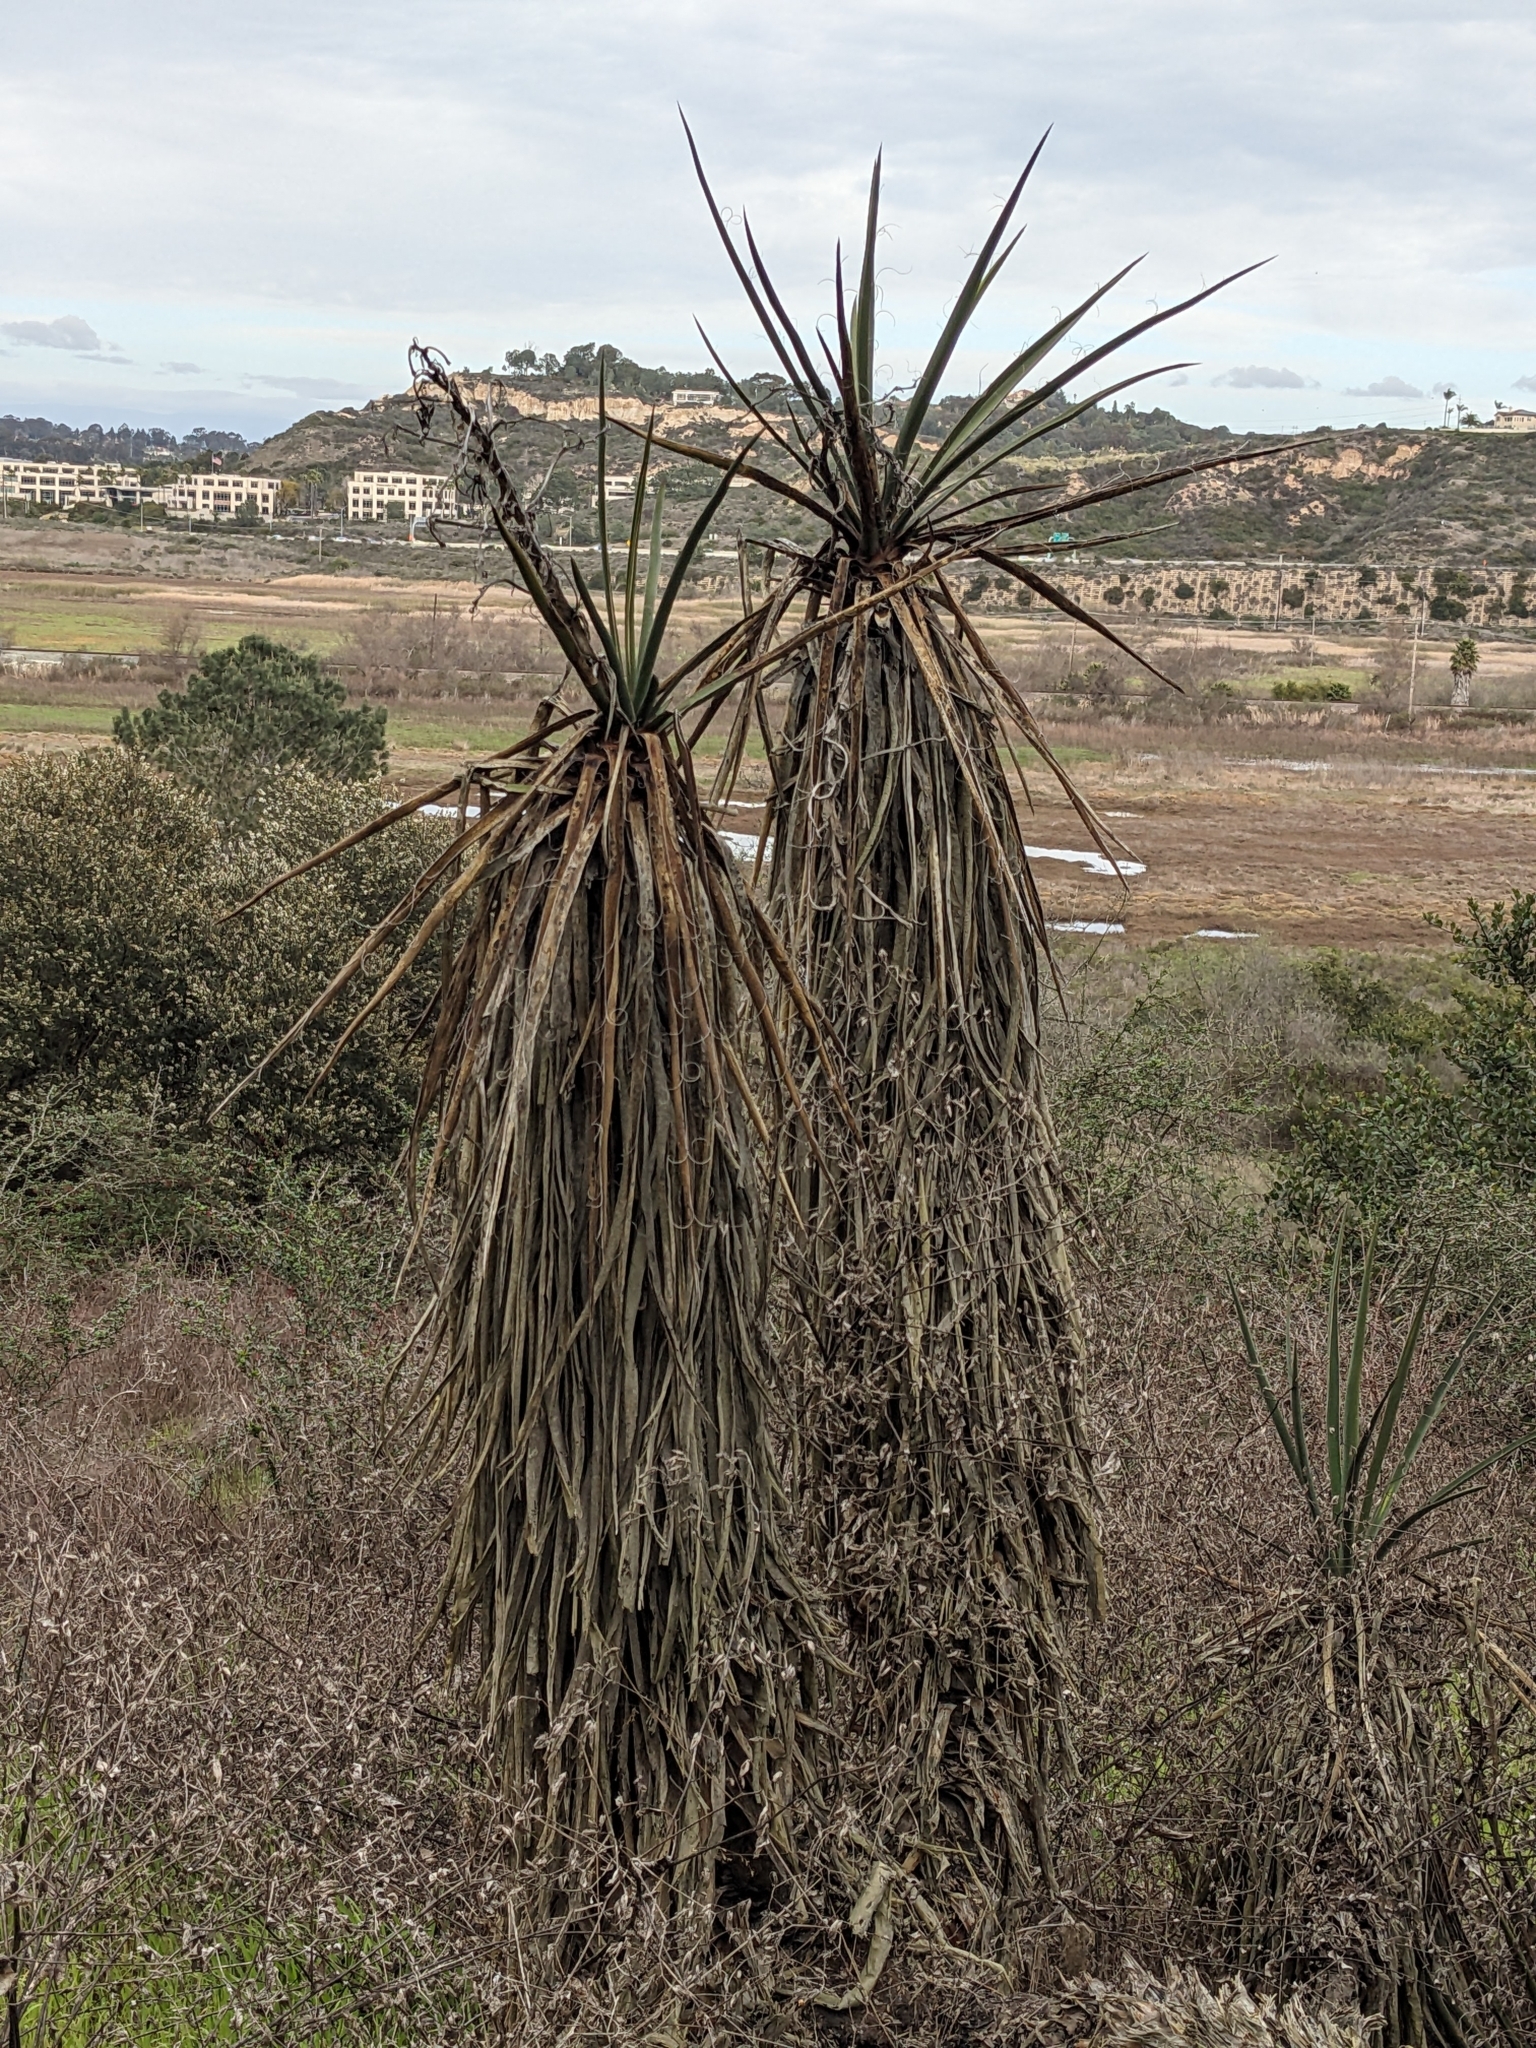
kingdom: Plantae
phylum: Tracheophyta
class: Liliopsida
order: Asparagales
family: Asparagaceae
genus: Yucca
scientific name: Yucca schidigera
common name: Mojave yucca
